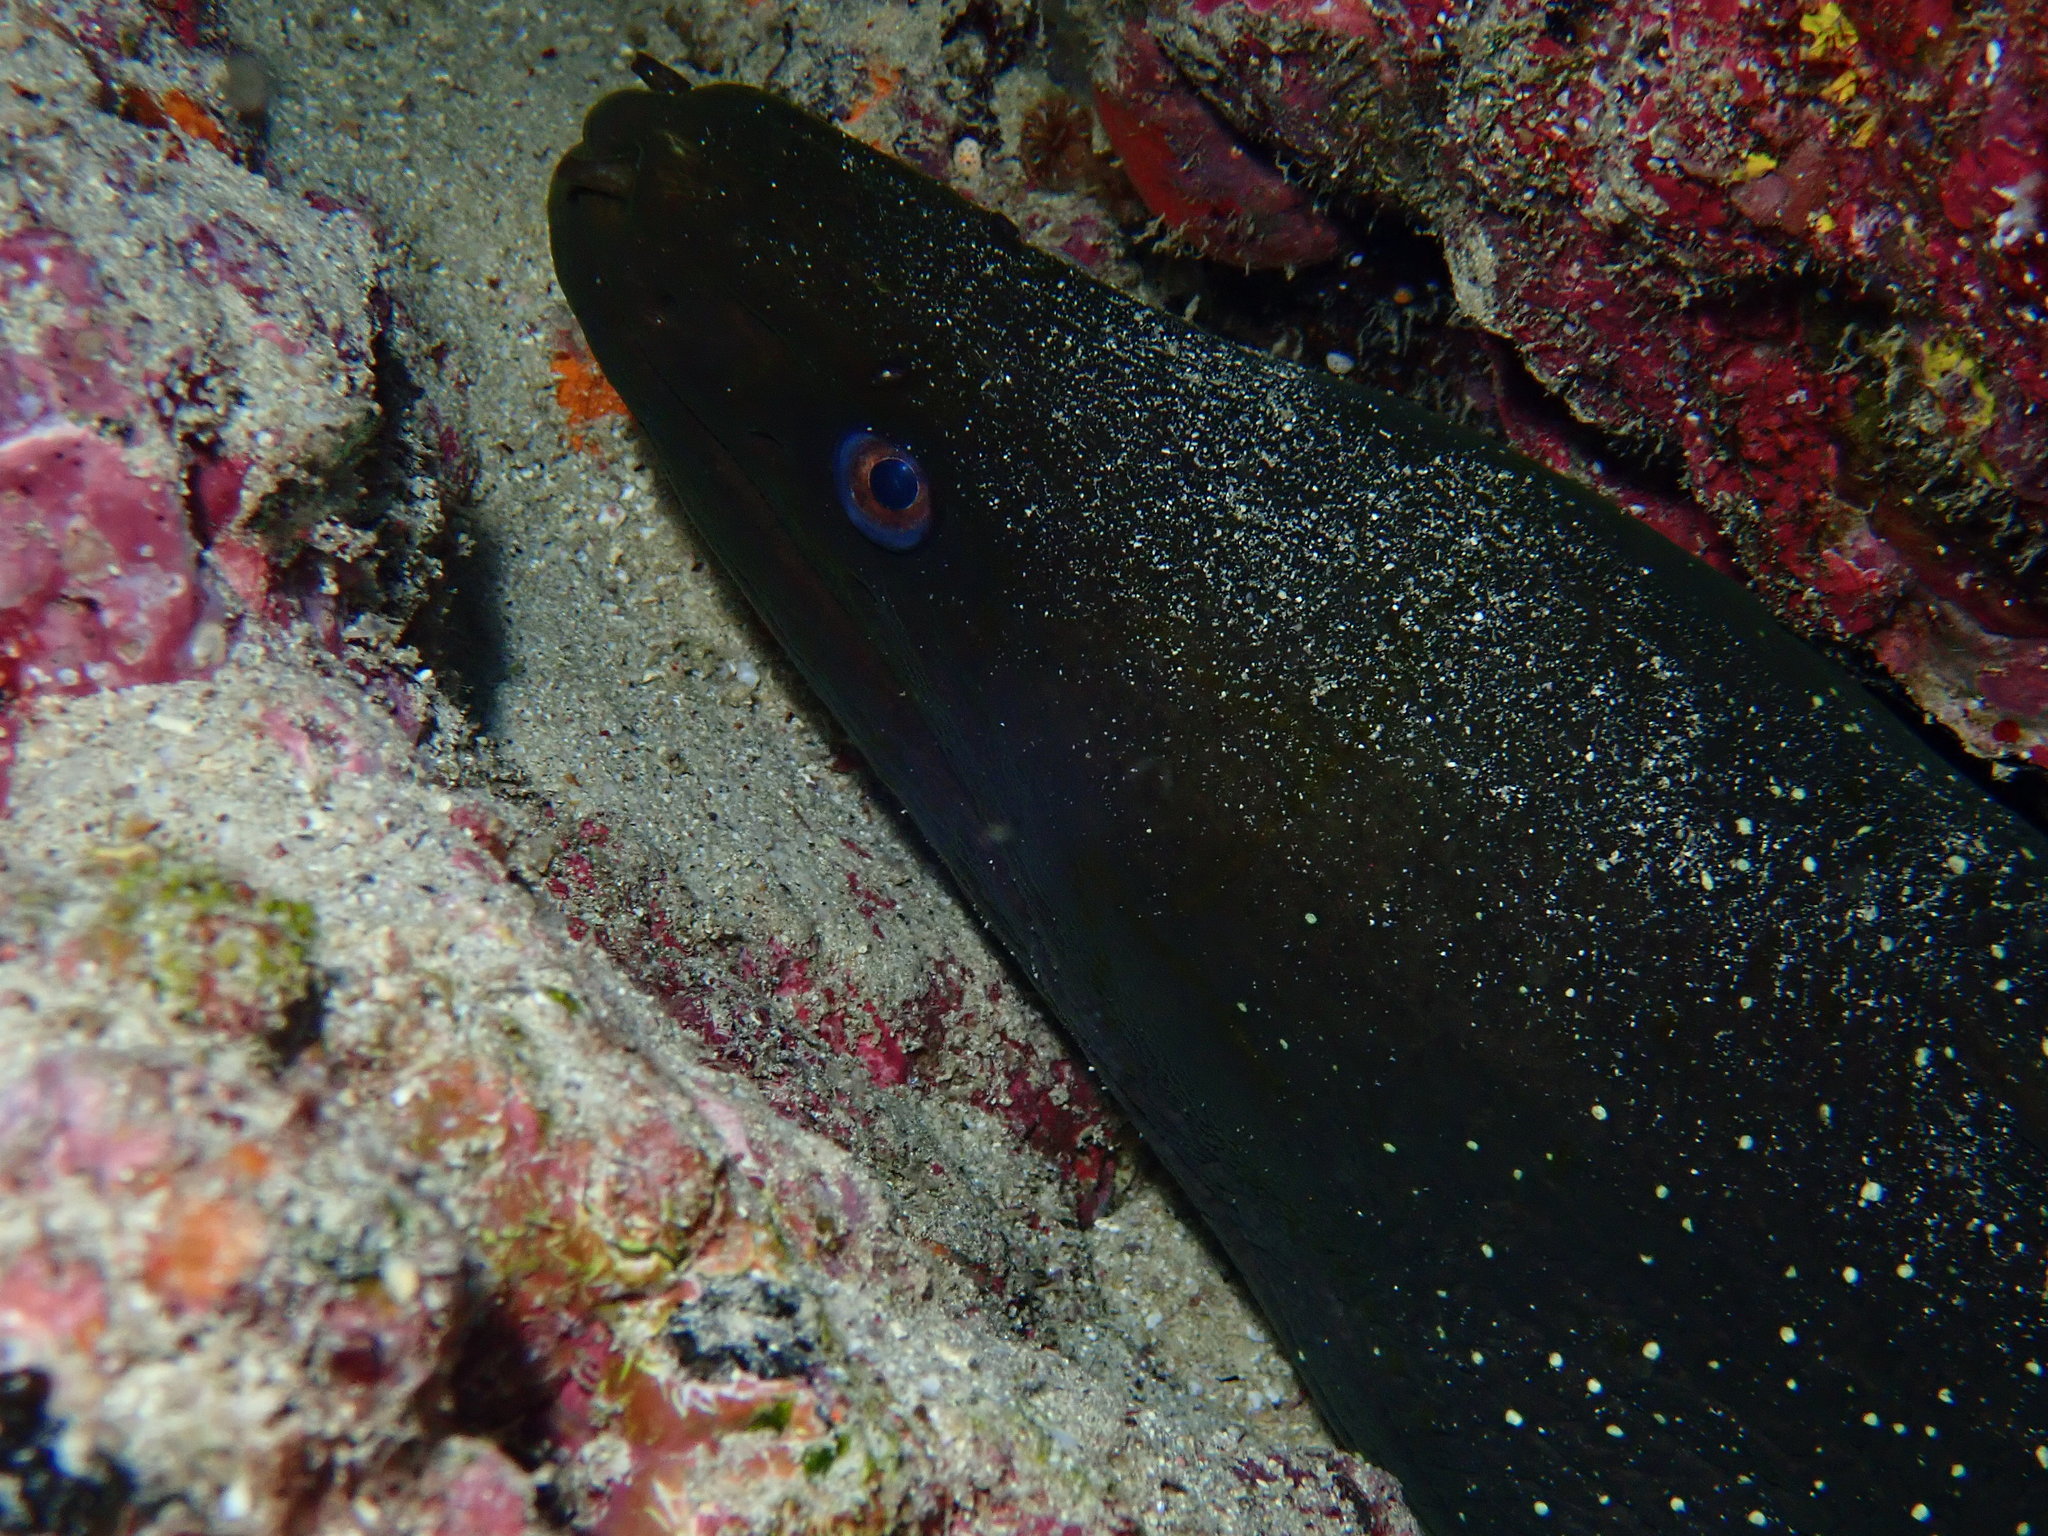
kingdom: Animalia
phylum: Chordata
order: Anguilliformes
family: Muraenidae
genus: Gymnothorax
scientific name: Gymnothorax dovii
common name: Finespotted moray
